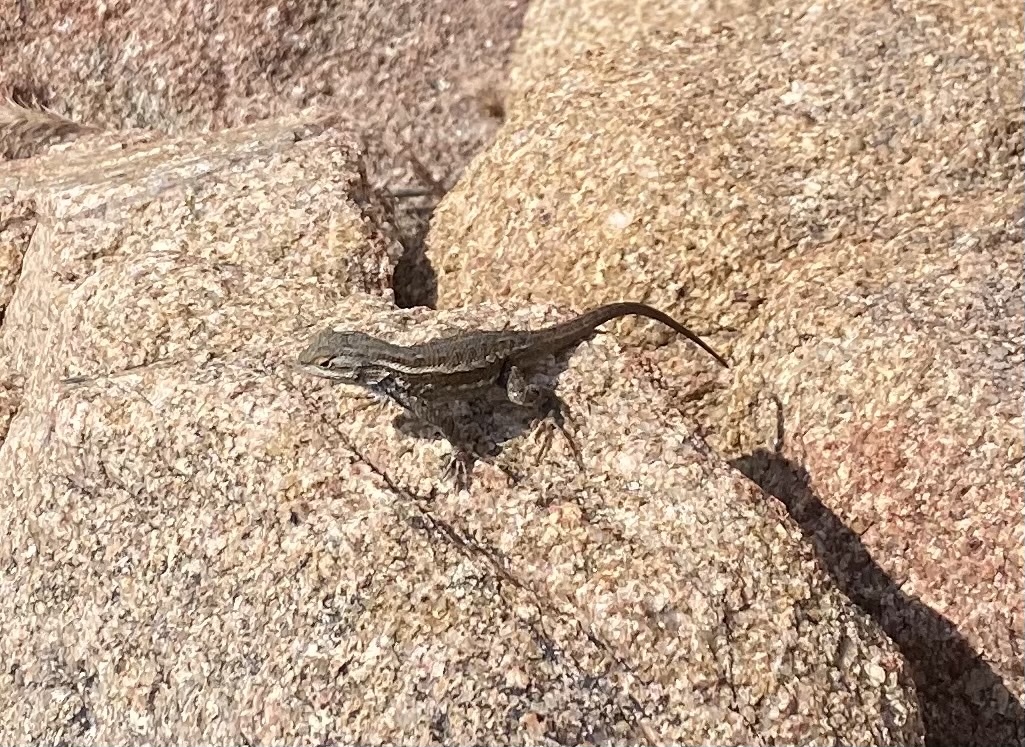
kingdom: Animalia
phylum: Chordata
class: Squamata
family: Phrynosomatidae
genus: Sceloporus
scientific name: Sceloporus tristichus
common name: Plateau fence lizard
